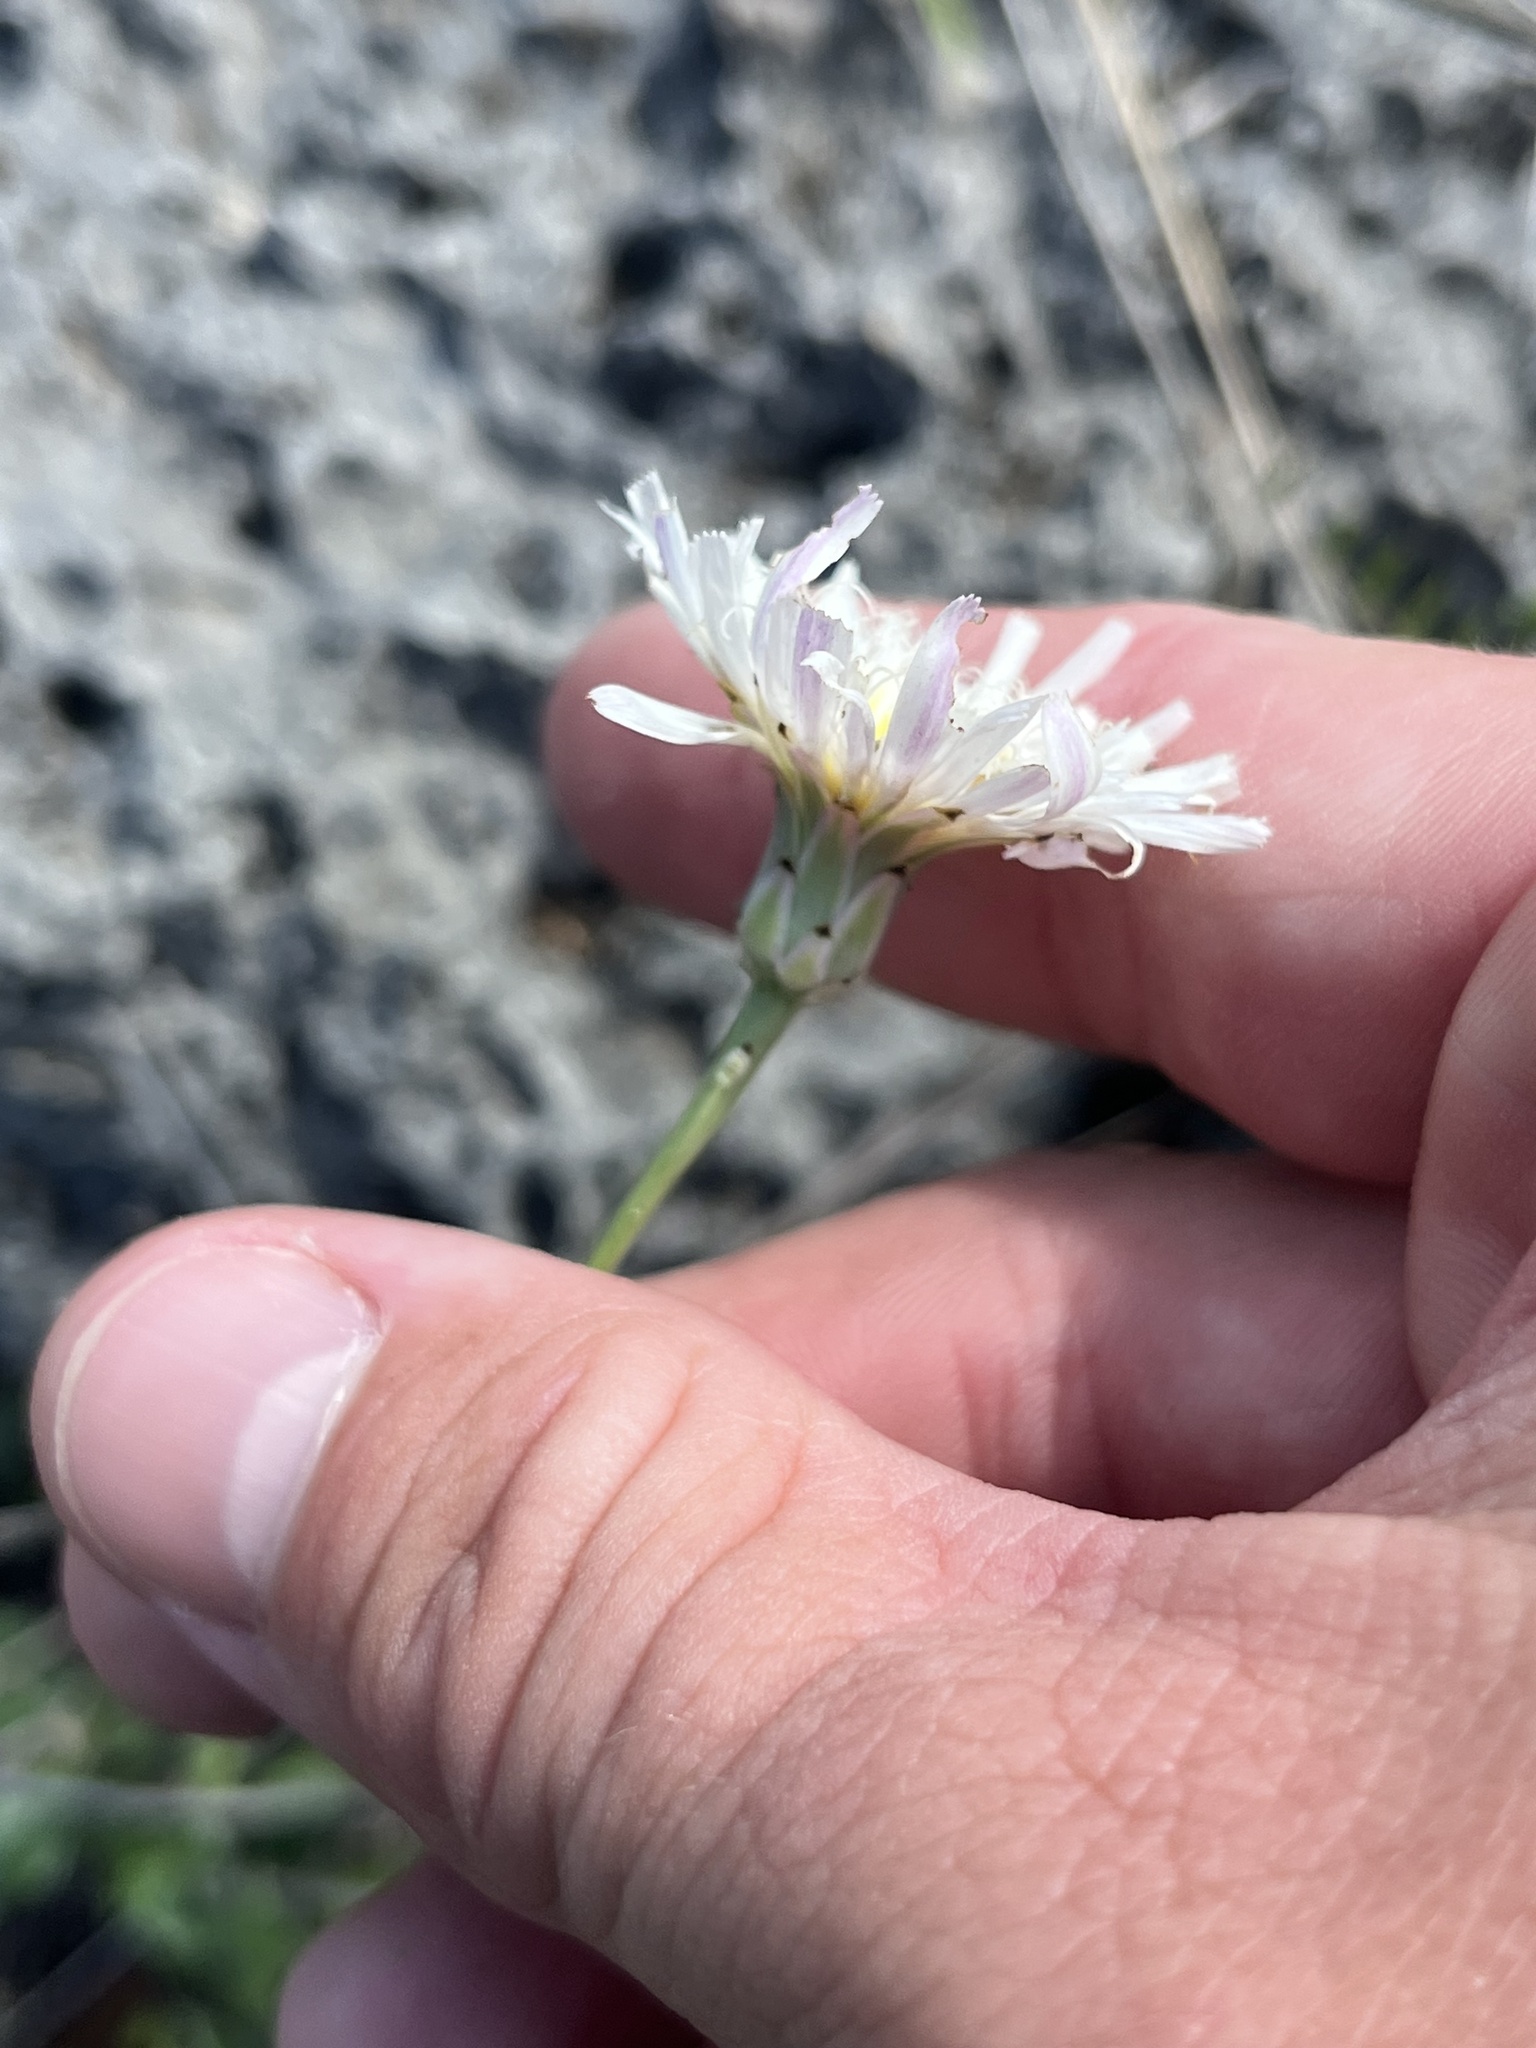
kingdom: Plantae
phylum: Tracheophyta
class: Magnoliopsida
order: Asterales
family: Asteraceae
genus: Pinaropappus
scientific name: Pinaropappus roseus
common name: Rock-lettuce
